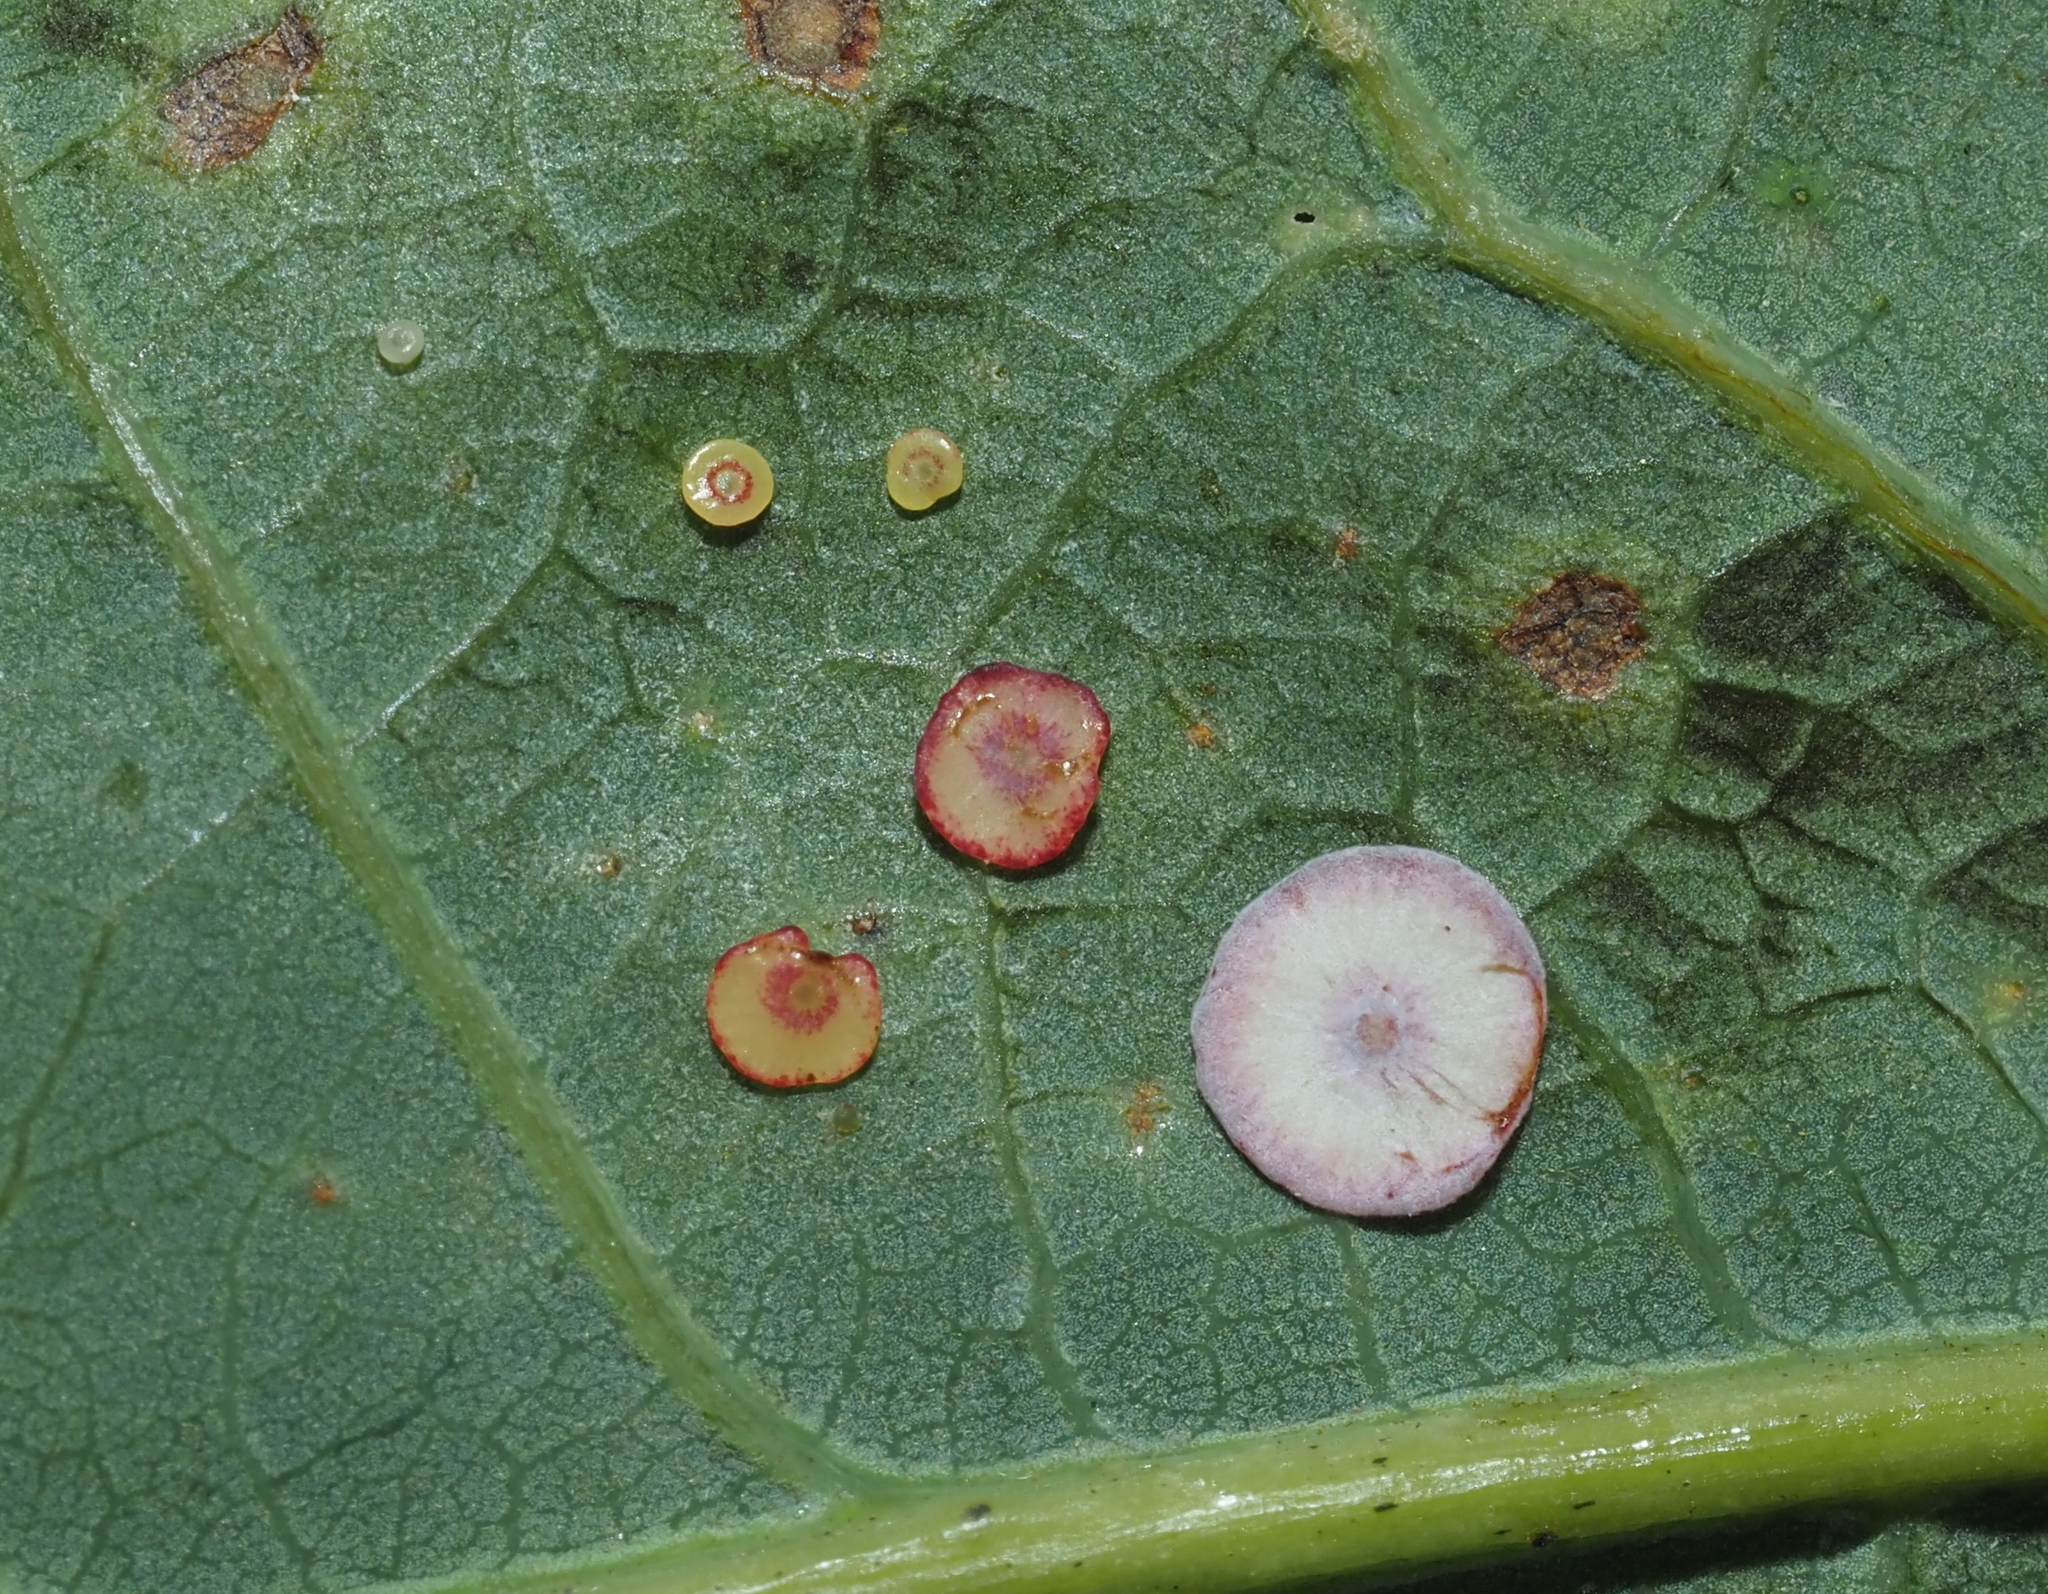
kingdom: Animalia
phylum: Arthropoda
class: Insecta
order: Hymenoptera
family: Cynipidae
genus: Phylloteras
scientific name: Phylloteras poculum
